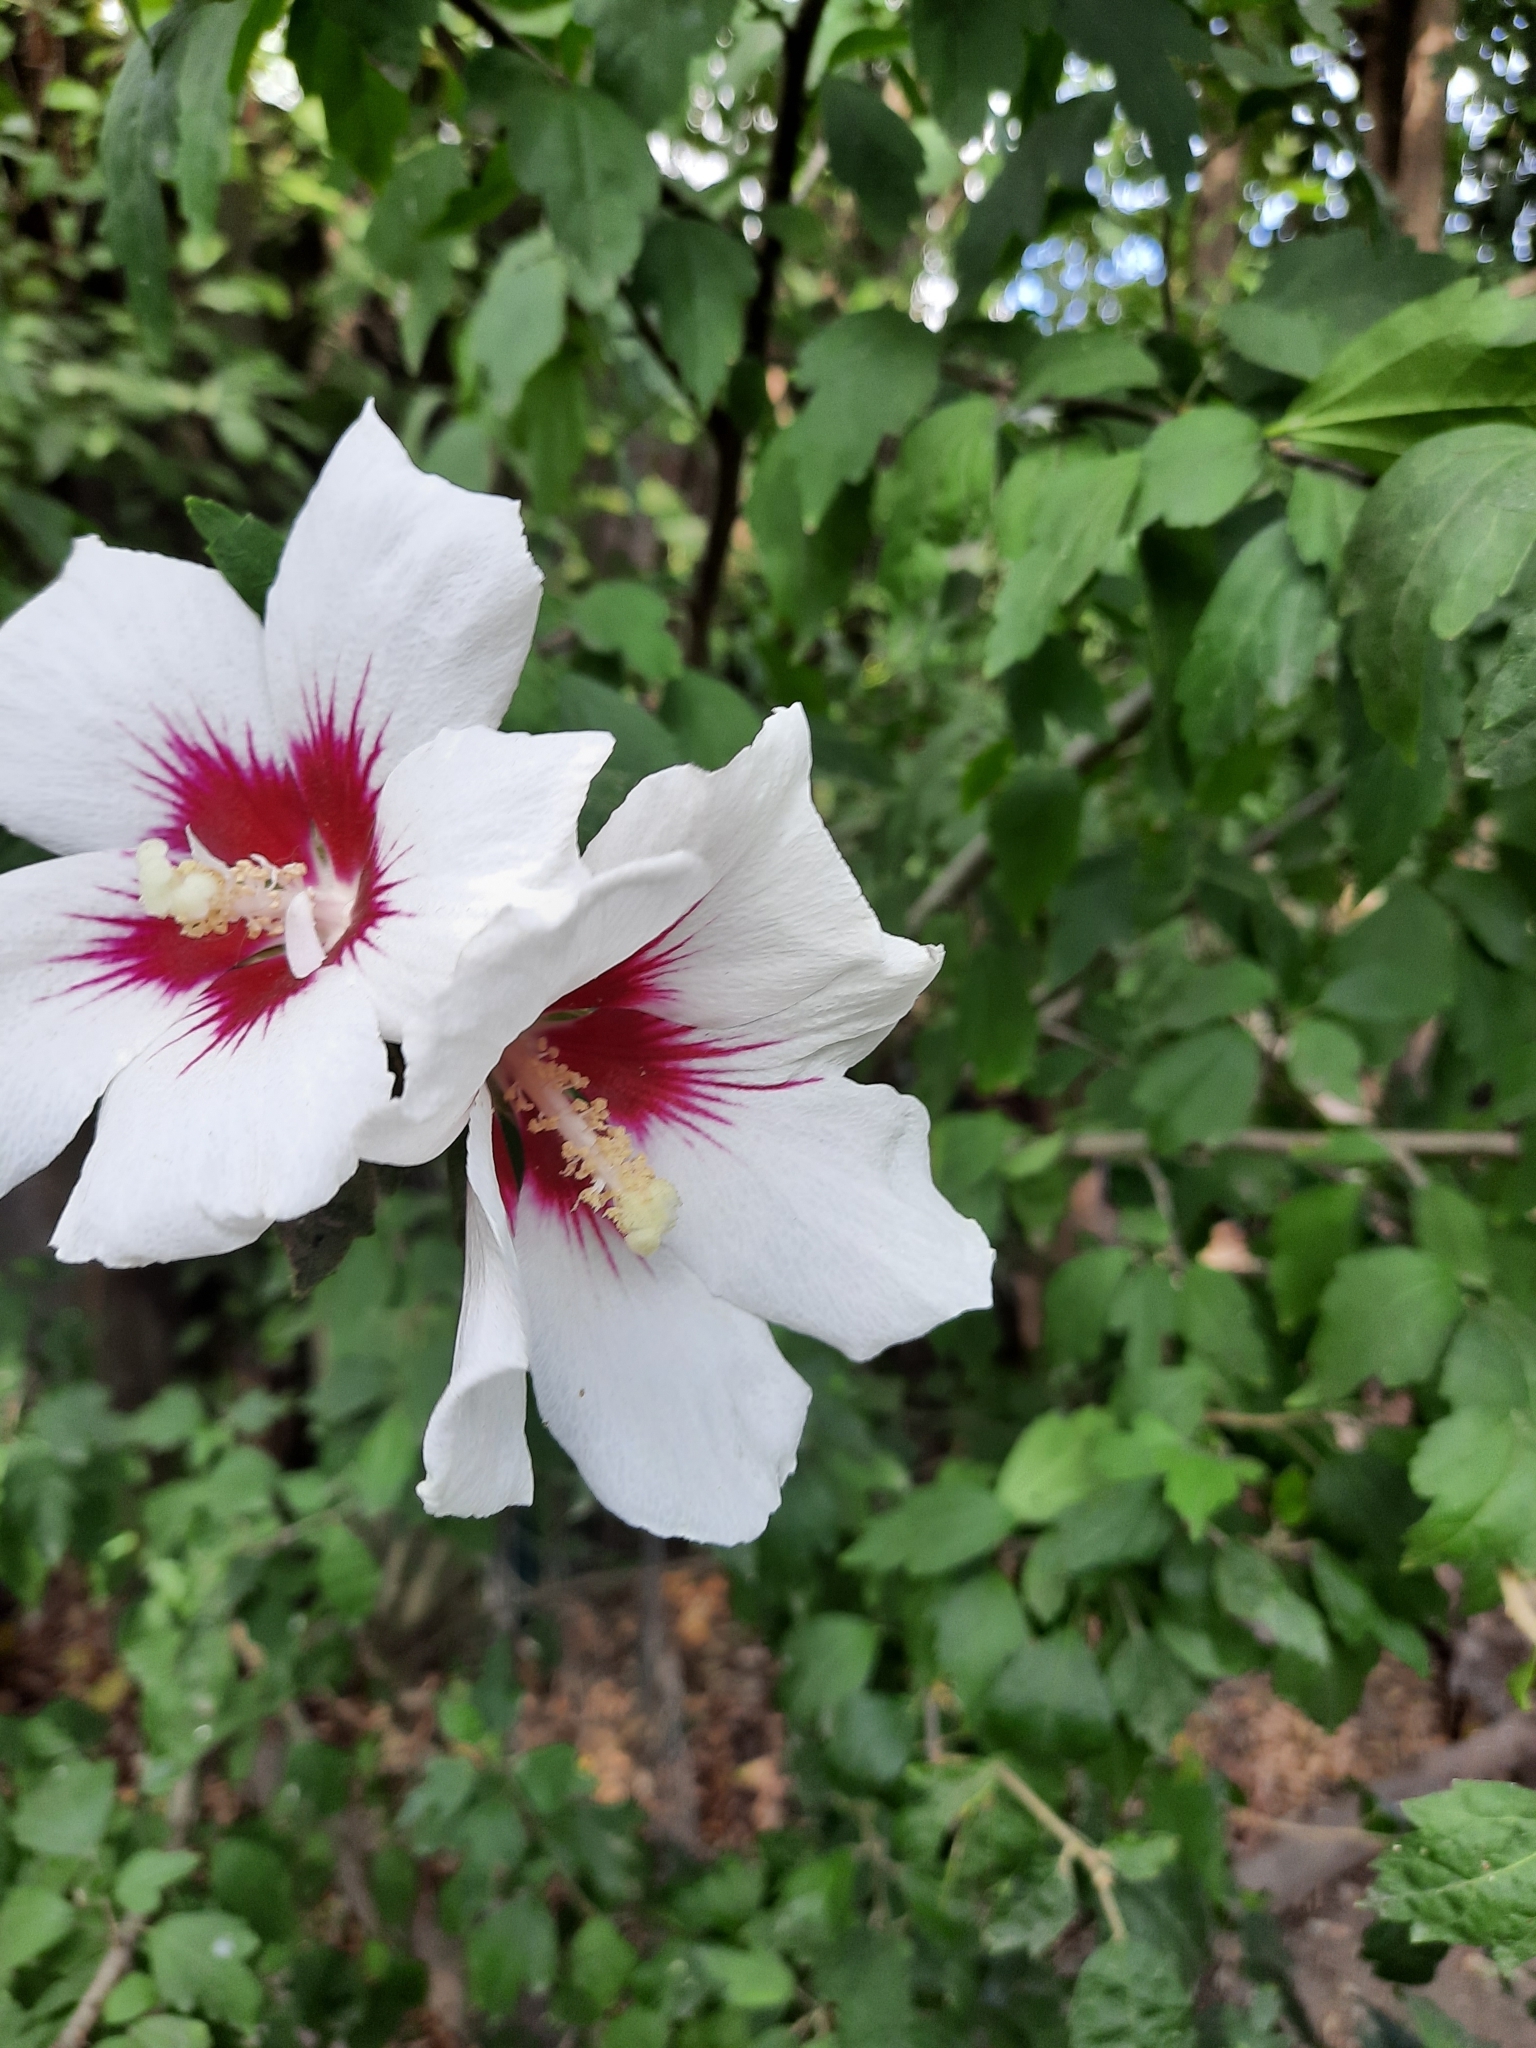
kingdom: Plantae
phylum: Tracheophyta
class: Magnoliopsida
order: Malvales
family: Malvaceae
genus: Hibiscus
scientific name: Hibiscus syriacus
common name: Syrian ketmia
